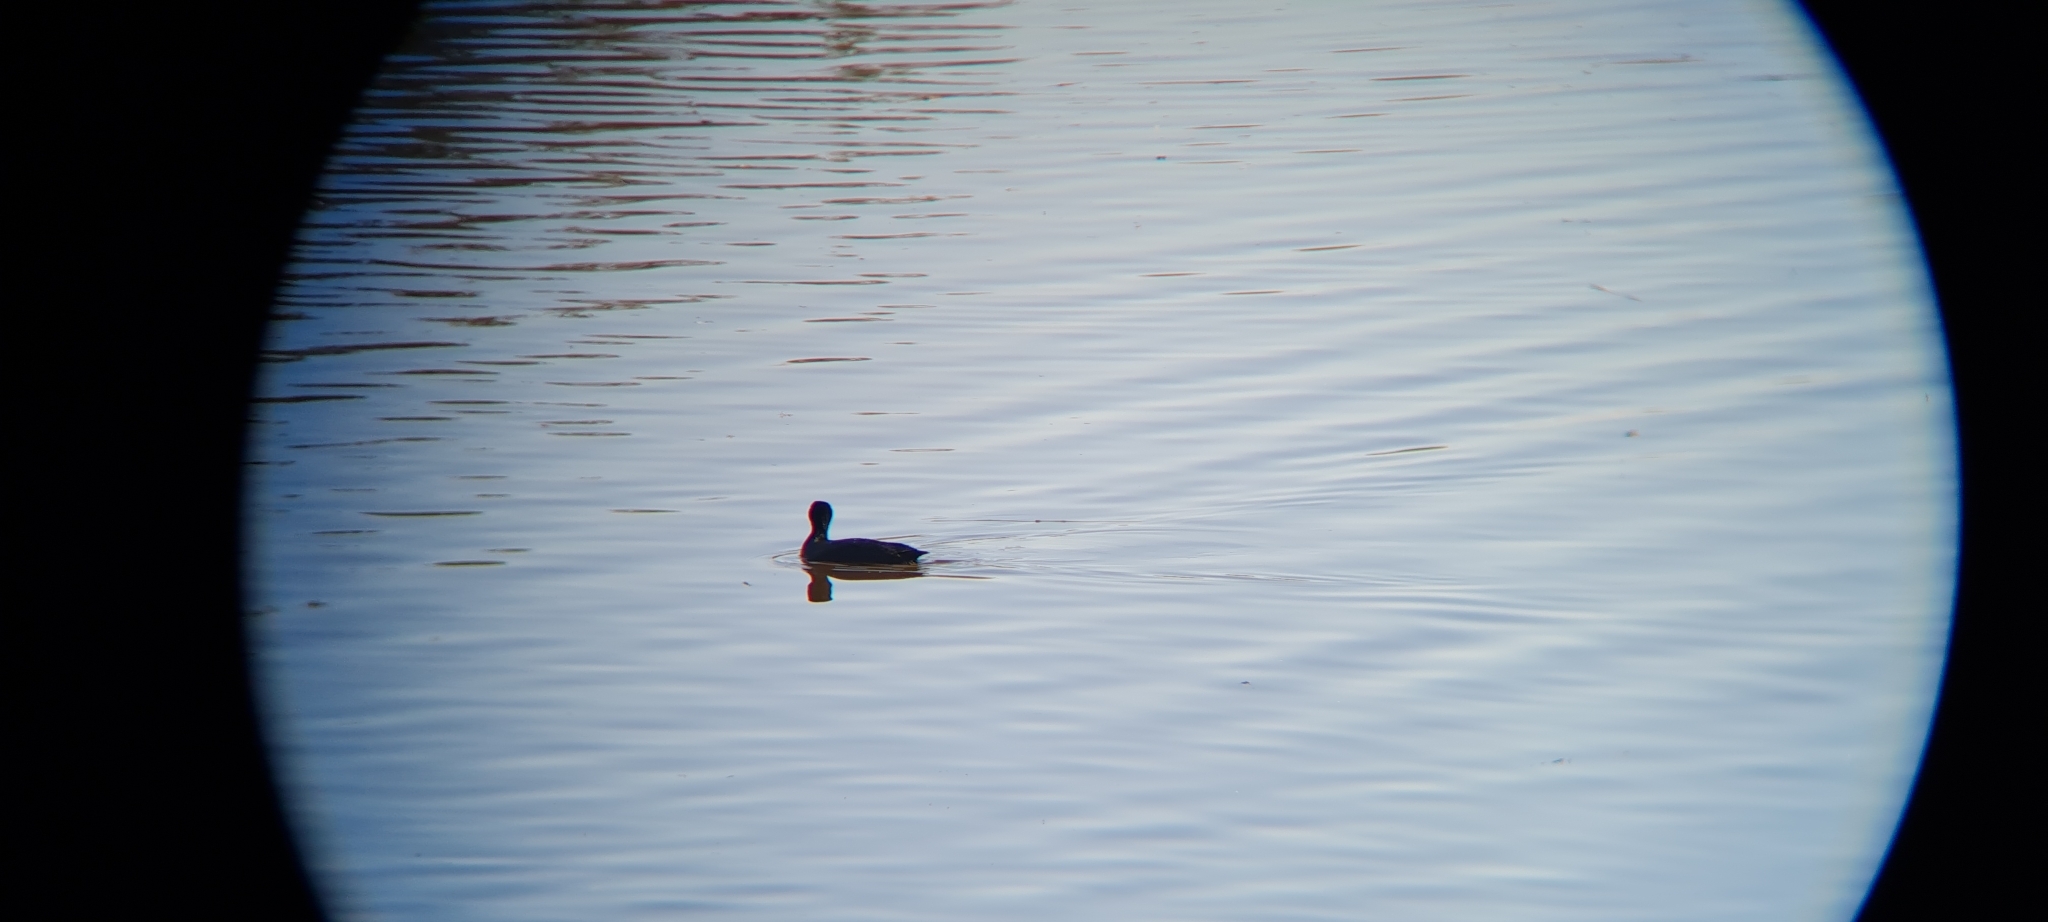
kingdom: Animalia
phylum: Chordata
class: Aves
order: Gruiformes
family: Rallidae
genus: Fulica
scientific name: Fulica atra
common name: Eurasian coot
